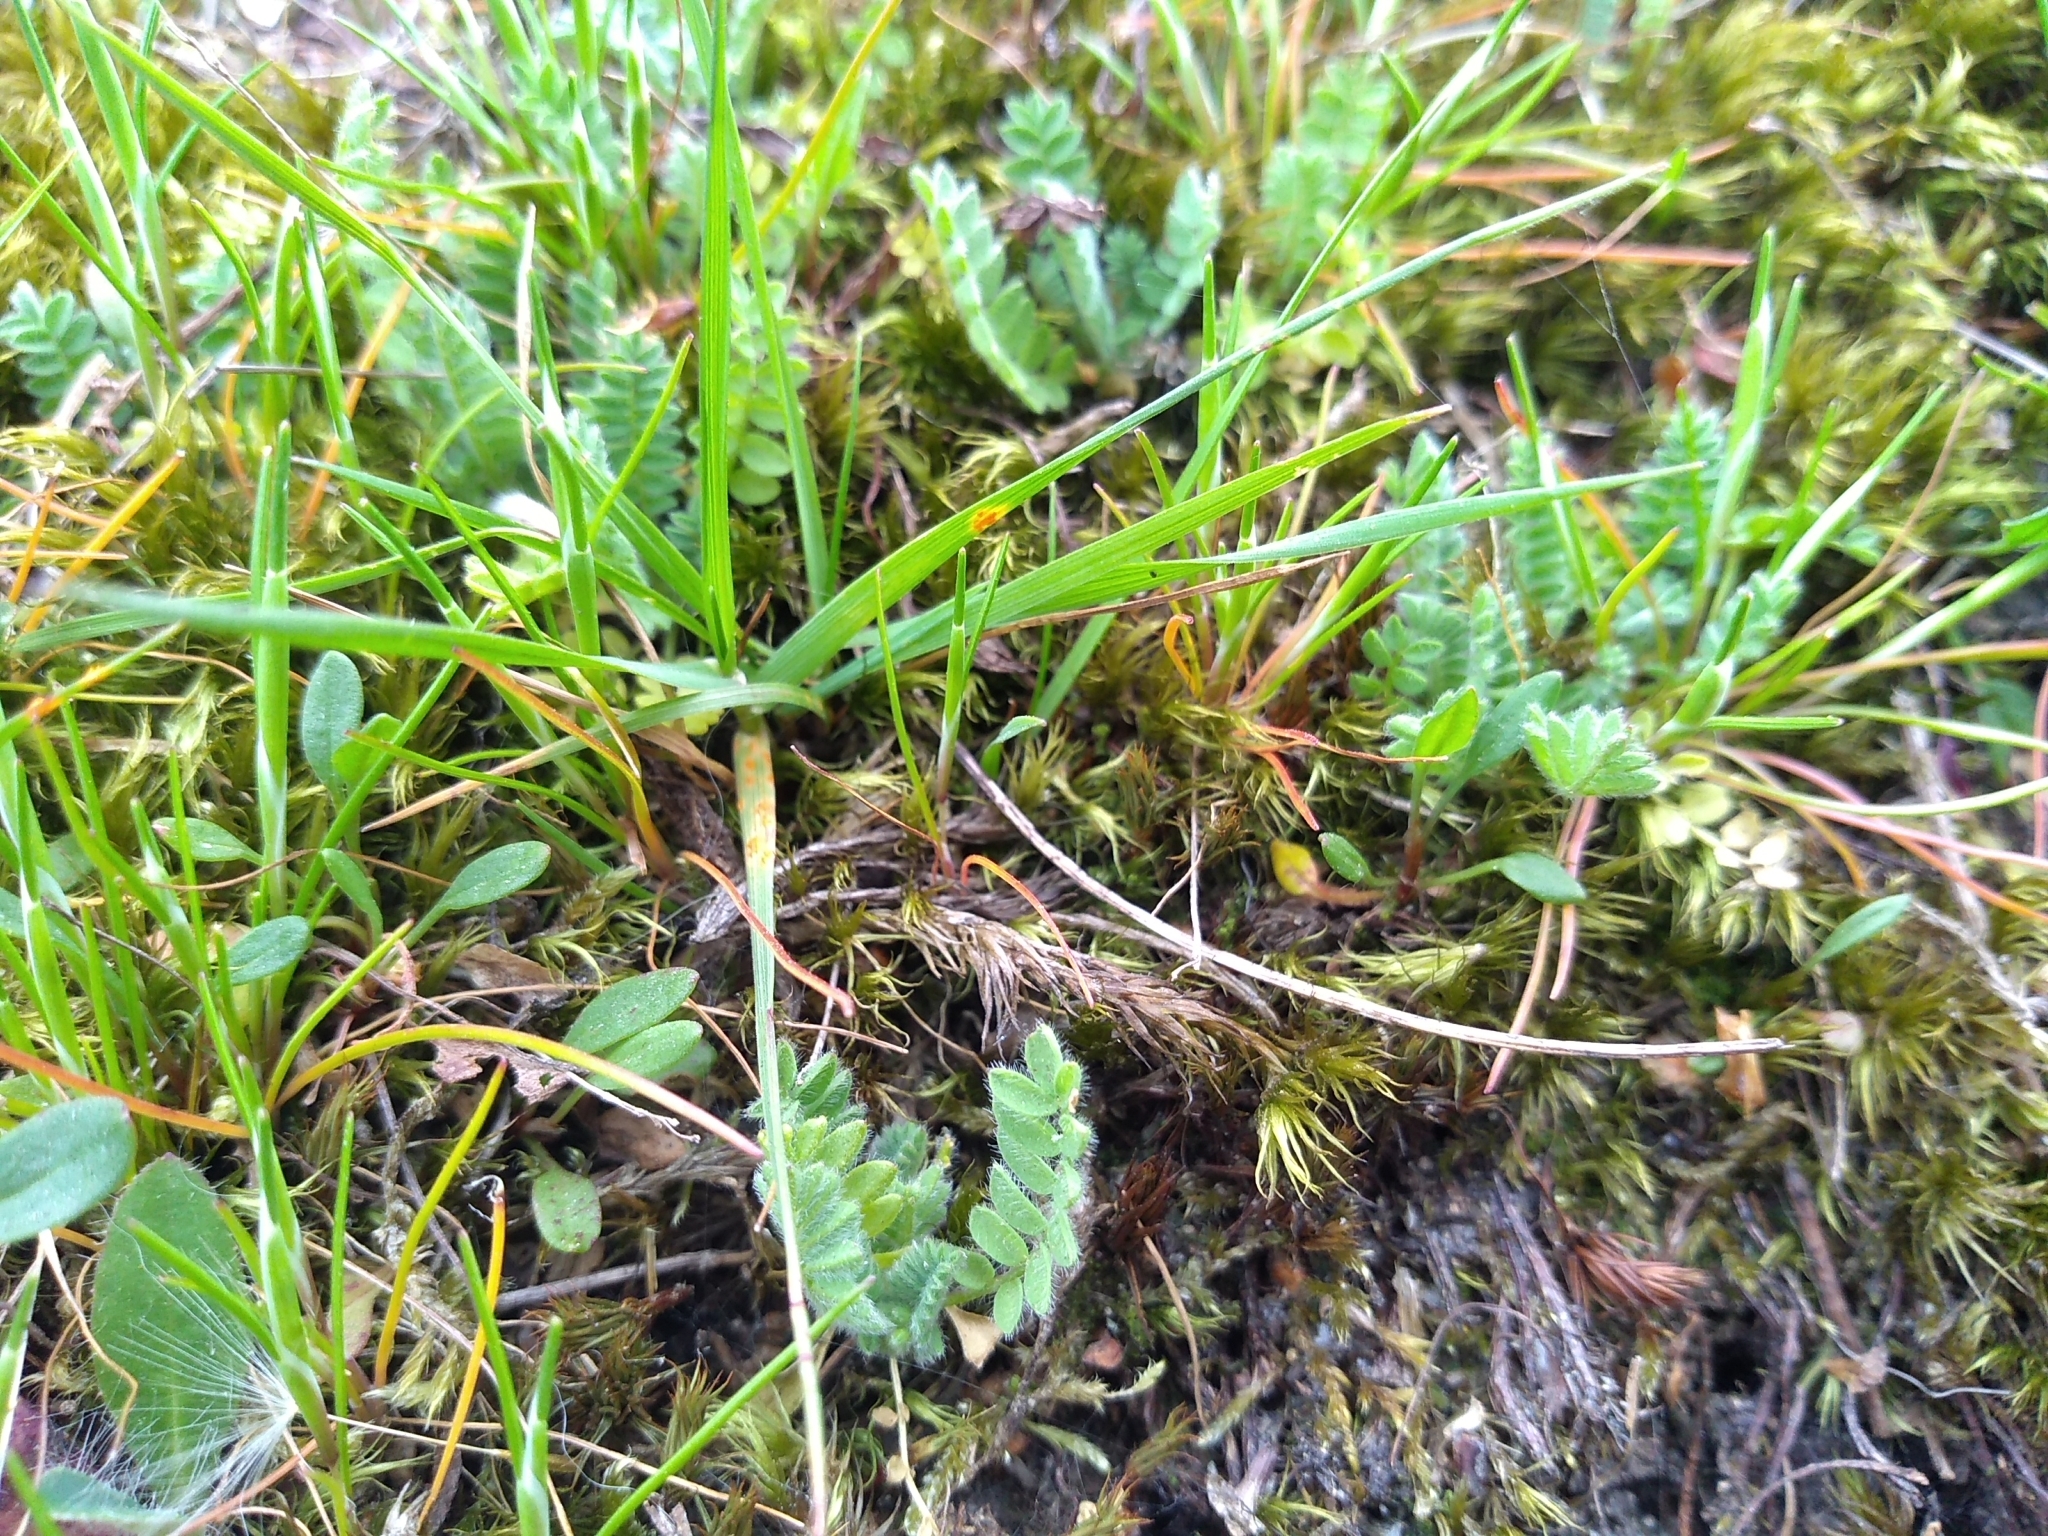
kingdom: Plantae
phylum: Tracheophyta
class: Magnoliopsida
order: Fabales
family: Fabaceae
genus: Ornithopus
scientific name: Ornithopus perpusillus
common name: Bird's-foot
